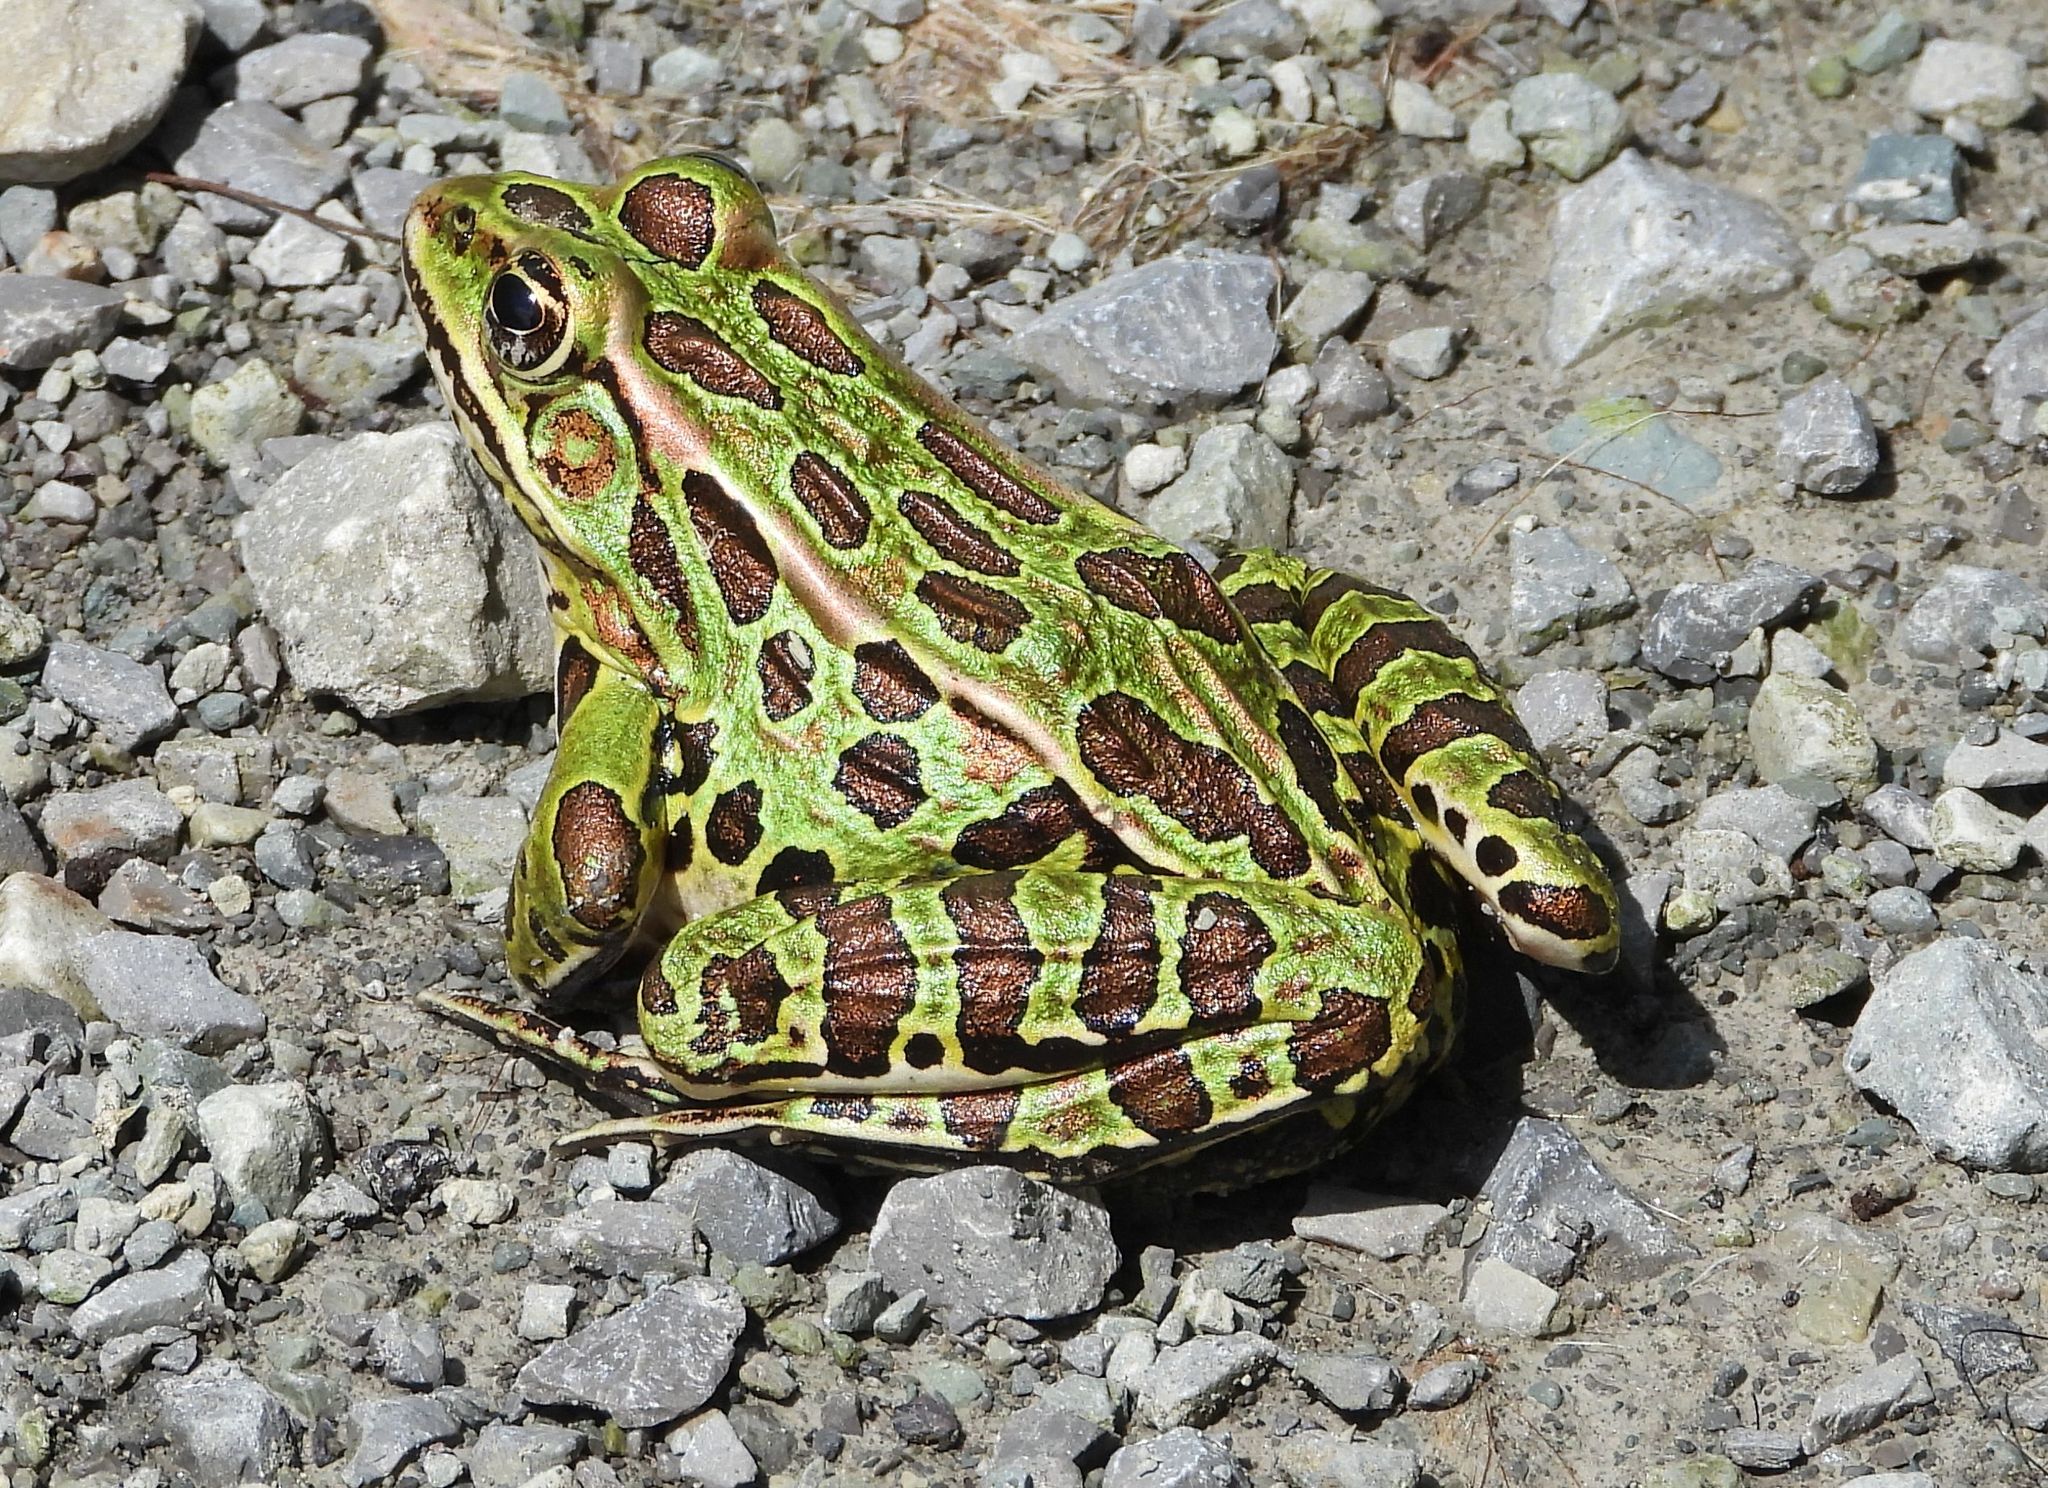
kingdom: Animalia
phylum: Chordata
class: Amphibia
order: Anura
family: Ranidae
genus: Lithobates
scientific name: Lithobates pipiens
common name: Northern leopard frog
